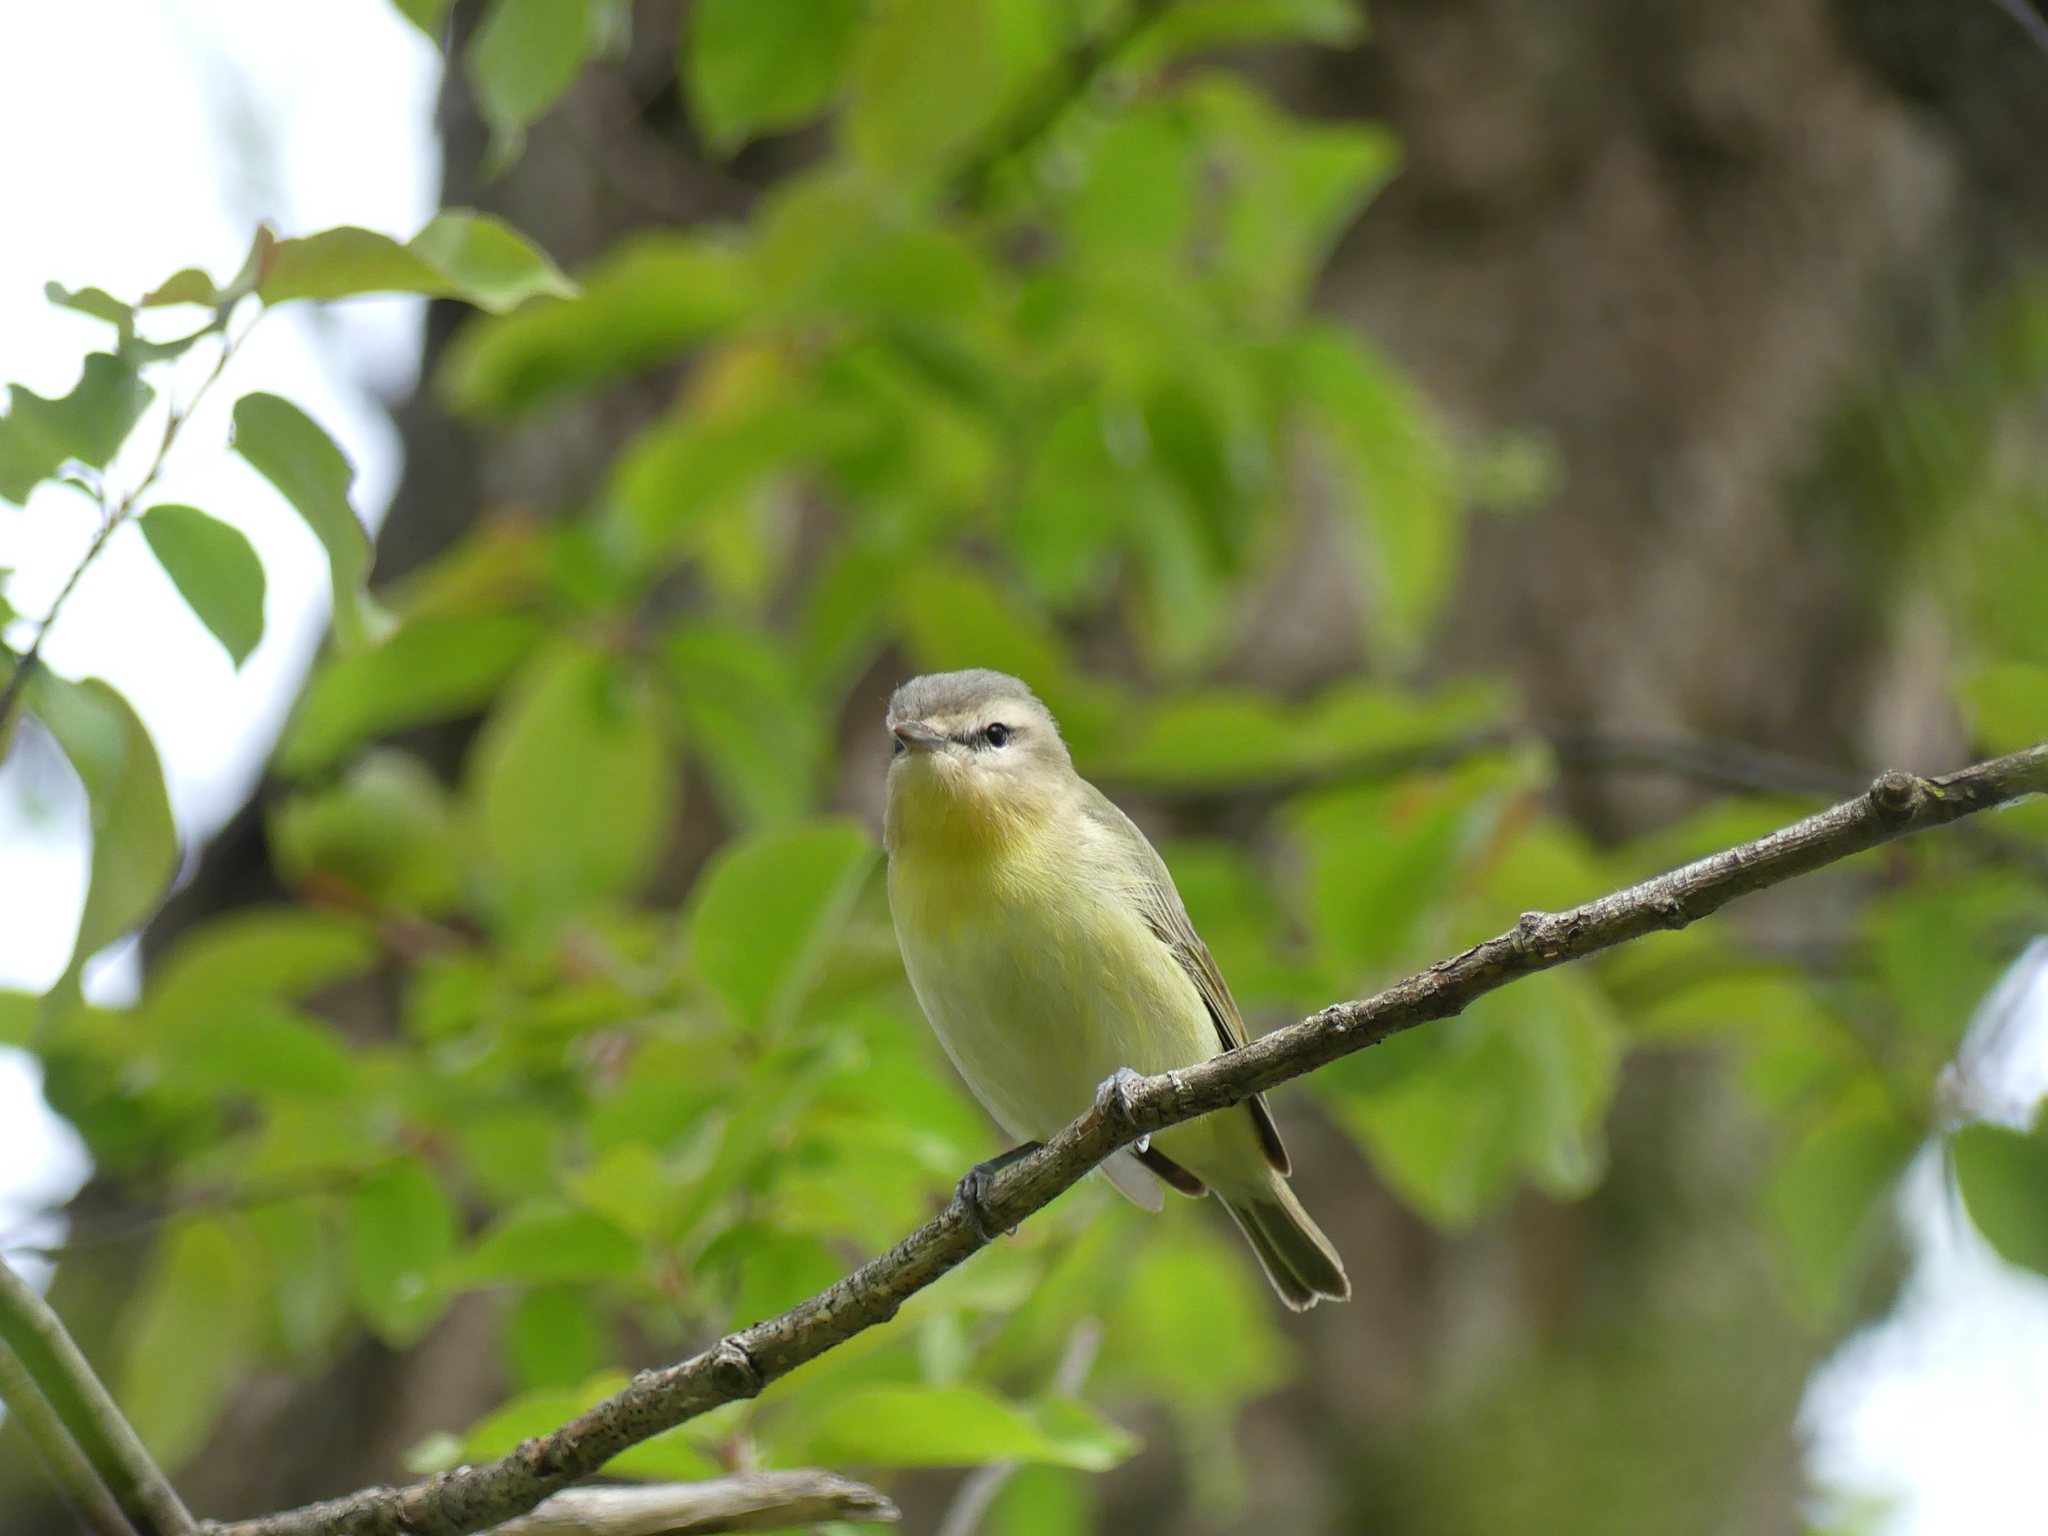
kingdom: Animalia
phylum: Chordata
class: Aves
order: Passeriformes
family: Vireonidae
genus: Vireo
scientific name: Vireo philadelphicus
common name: Philadelphia vireo
